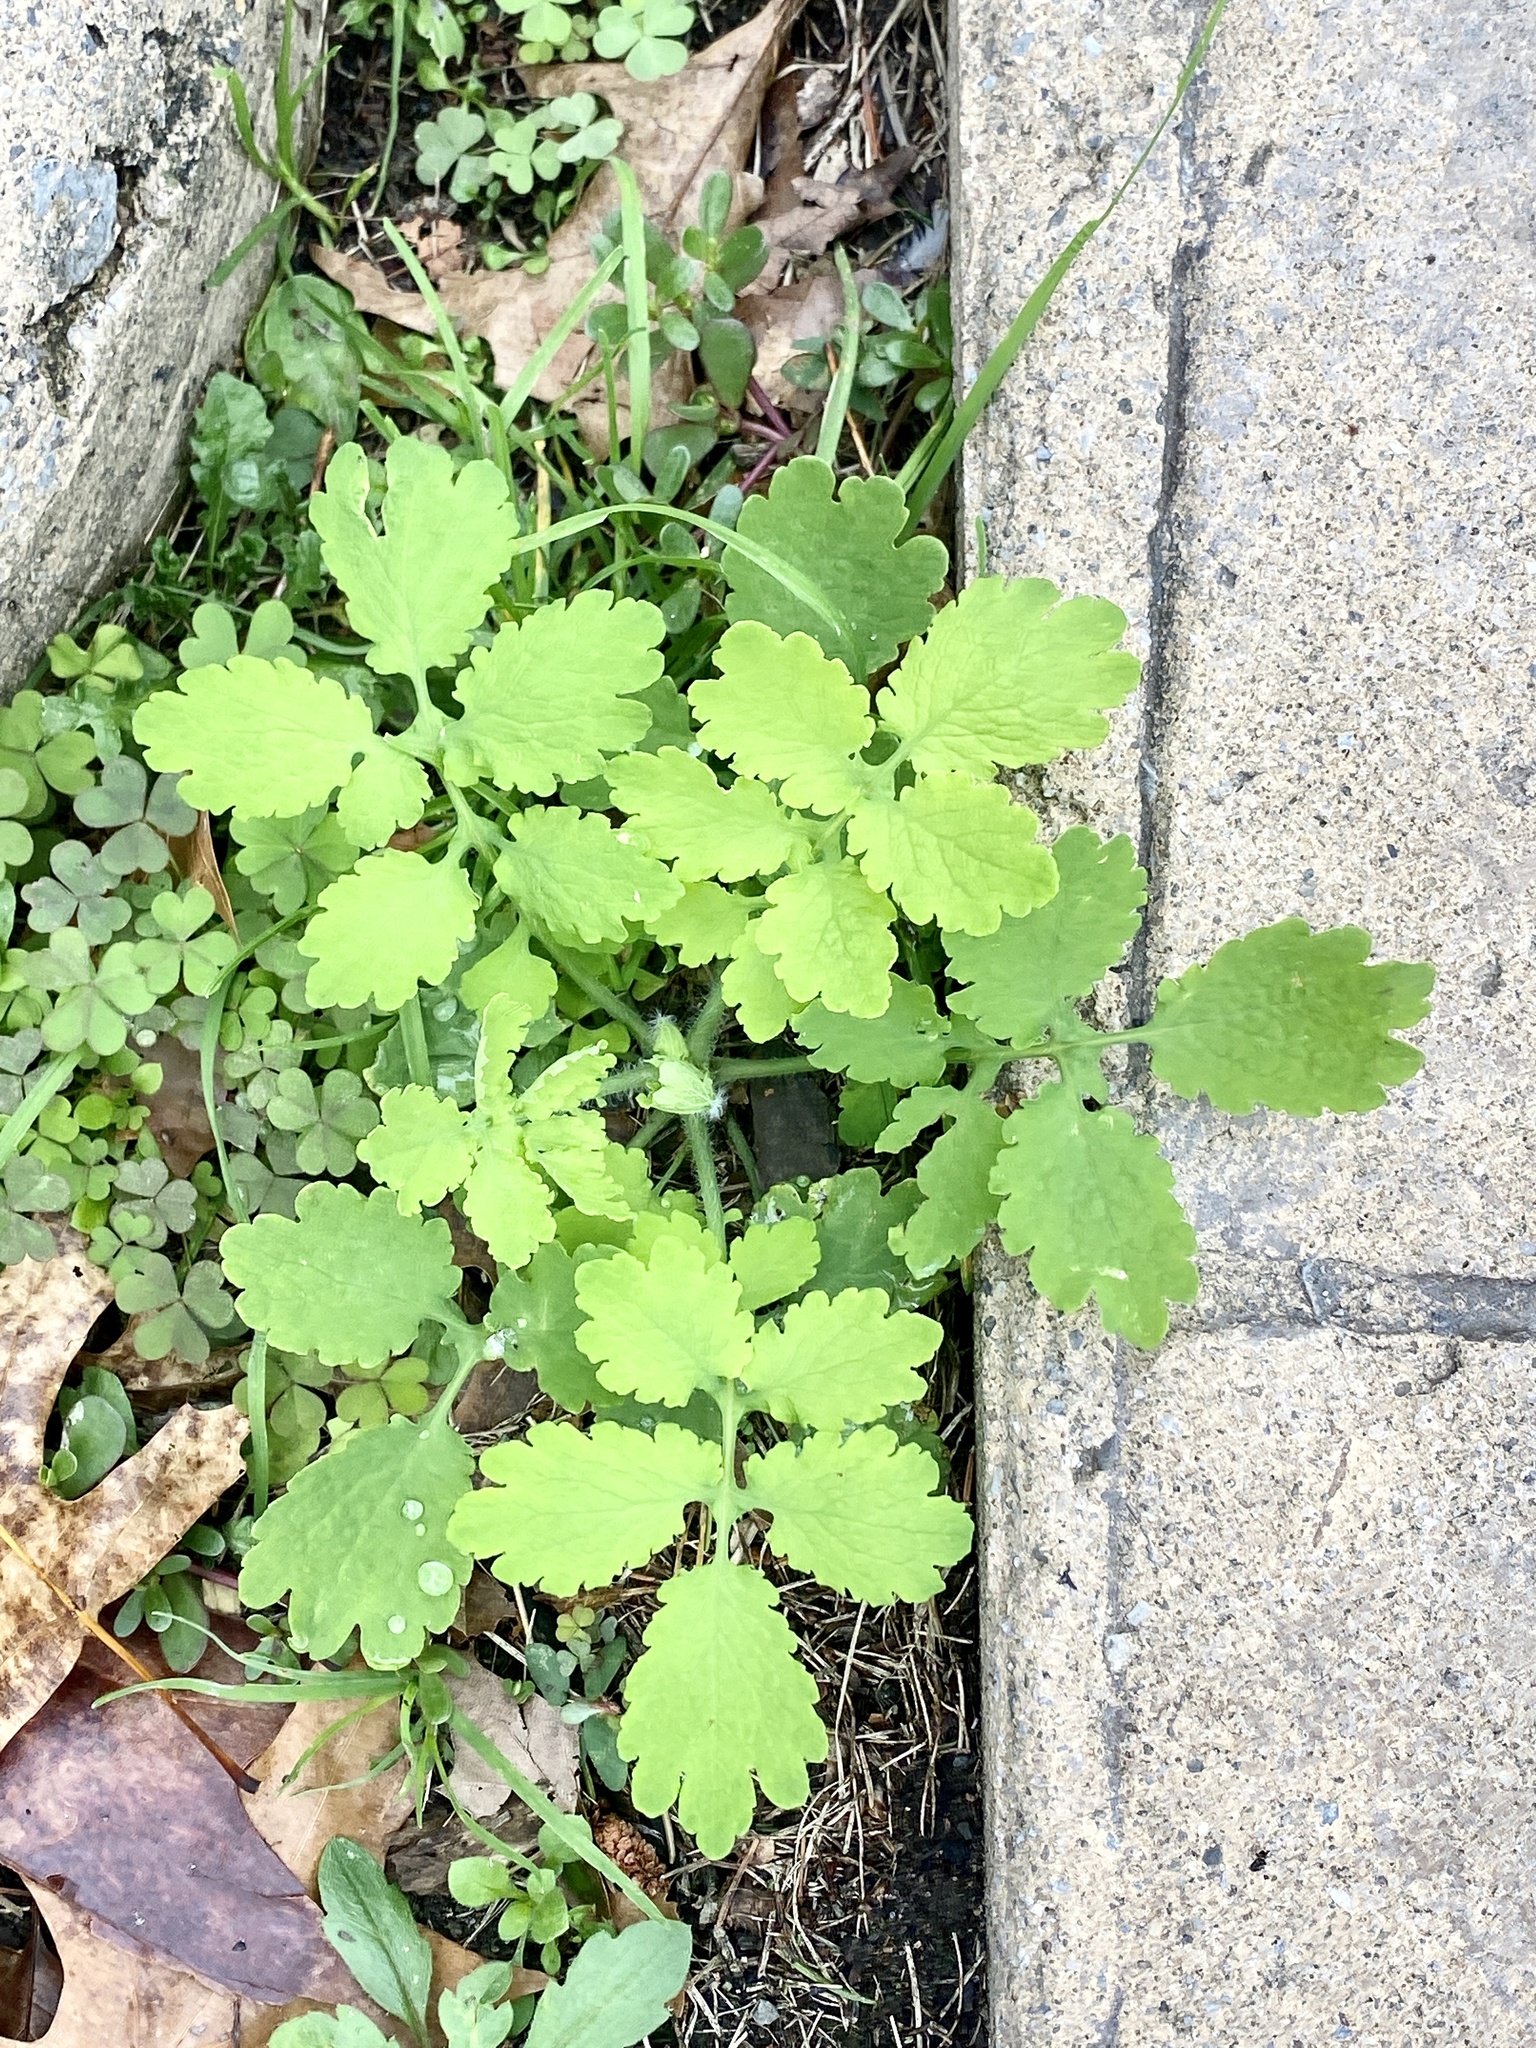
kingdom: Plantae
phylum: Tracheophyta
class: Magnoliopsida
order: Ranunculales
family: Papaveraceae
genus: Chelidonium
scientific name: Chelidonium majus
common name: Greater celandine
